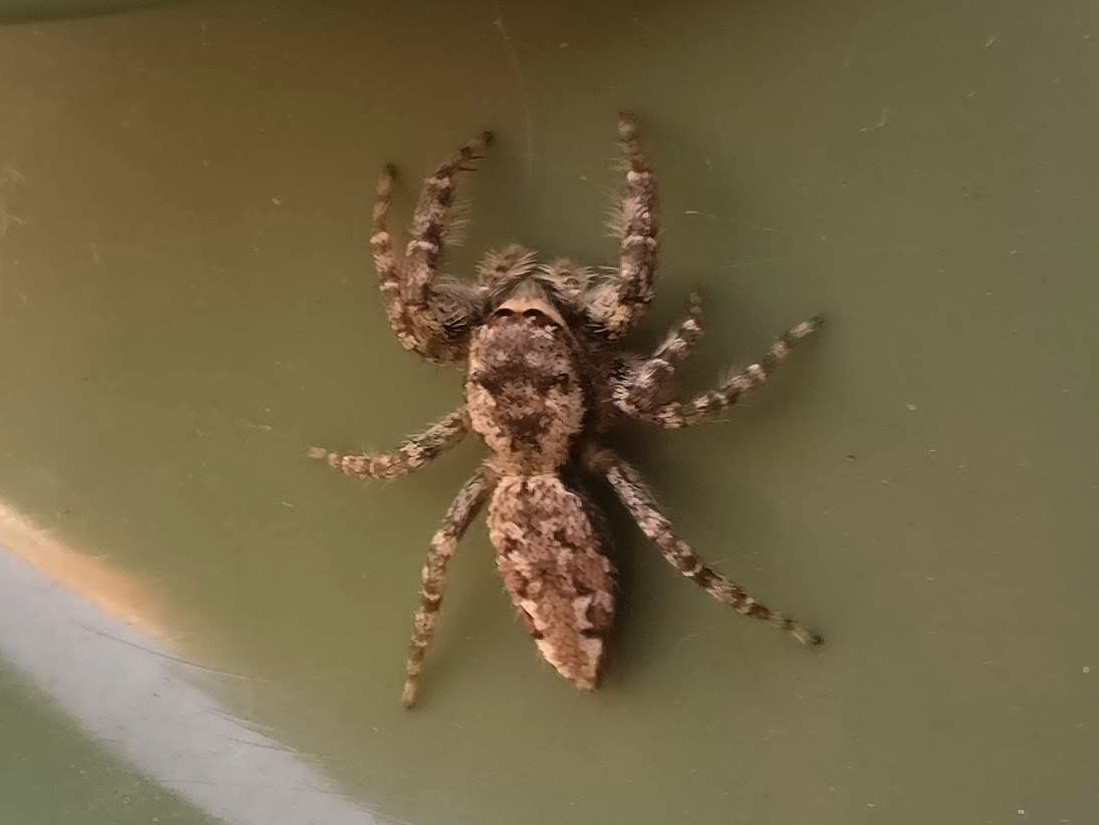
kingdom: Animalia
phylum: Arthropoda
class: Arachnida
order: Araneae
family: Salticidae
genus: Marpissa
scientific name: Marpissa muscosa
